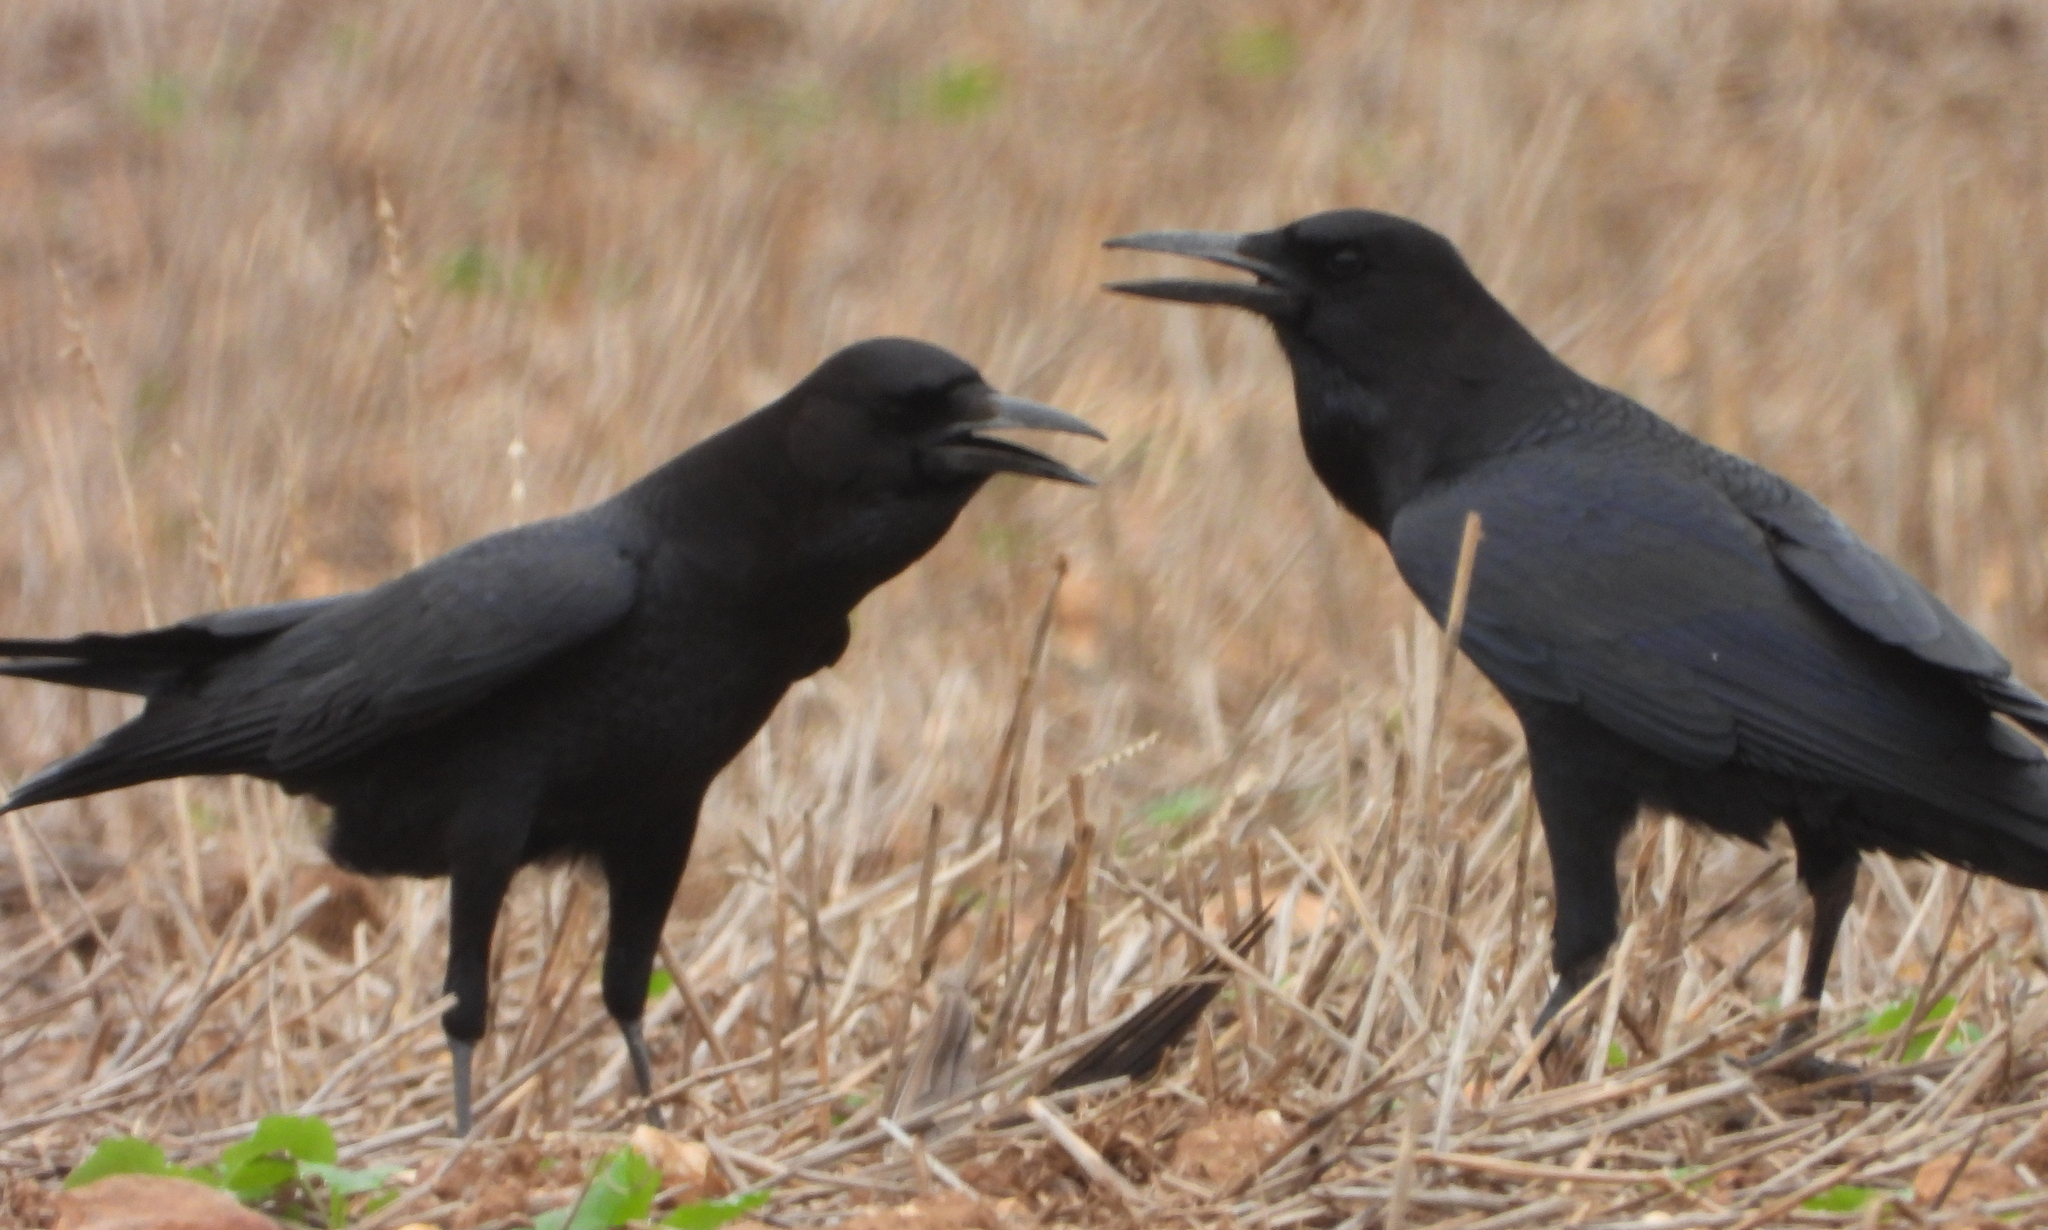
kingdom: Animalia
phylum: Chordata
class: Aves
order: Passeriformes
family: Corvidae
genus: Corvus
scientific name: Corvus capensis
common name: Cape crow
